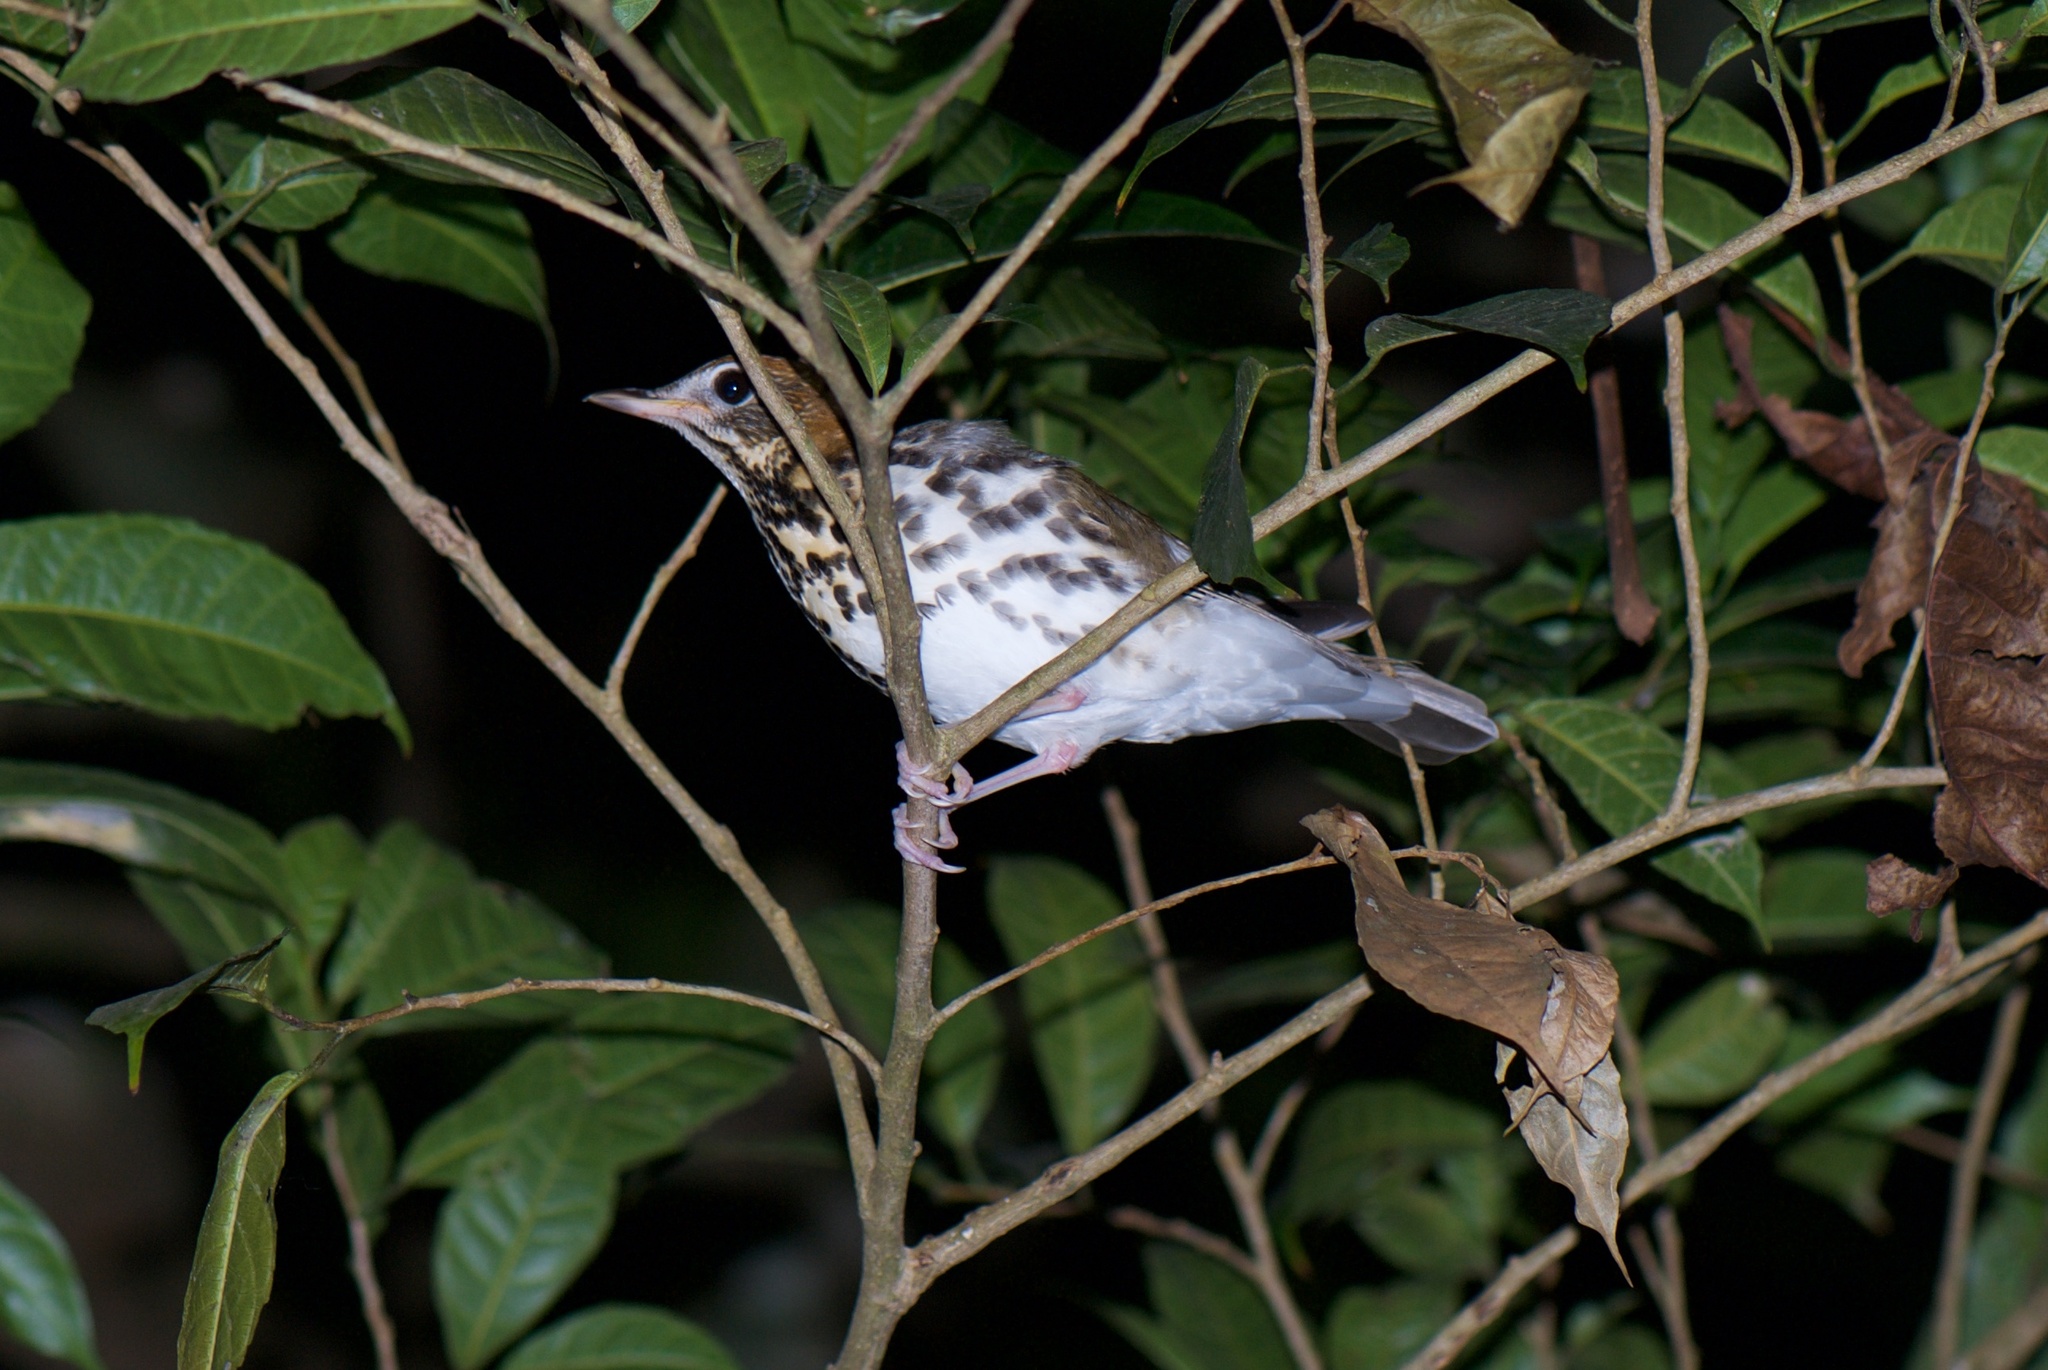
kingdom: Animalia
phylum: Chordata
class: Aves
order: Passeriformes
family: Turdidae
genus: Hylocichla
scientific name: Hylocichla mustelina
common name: Wood thrush
